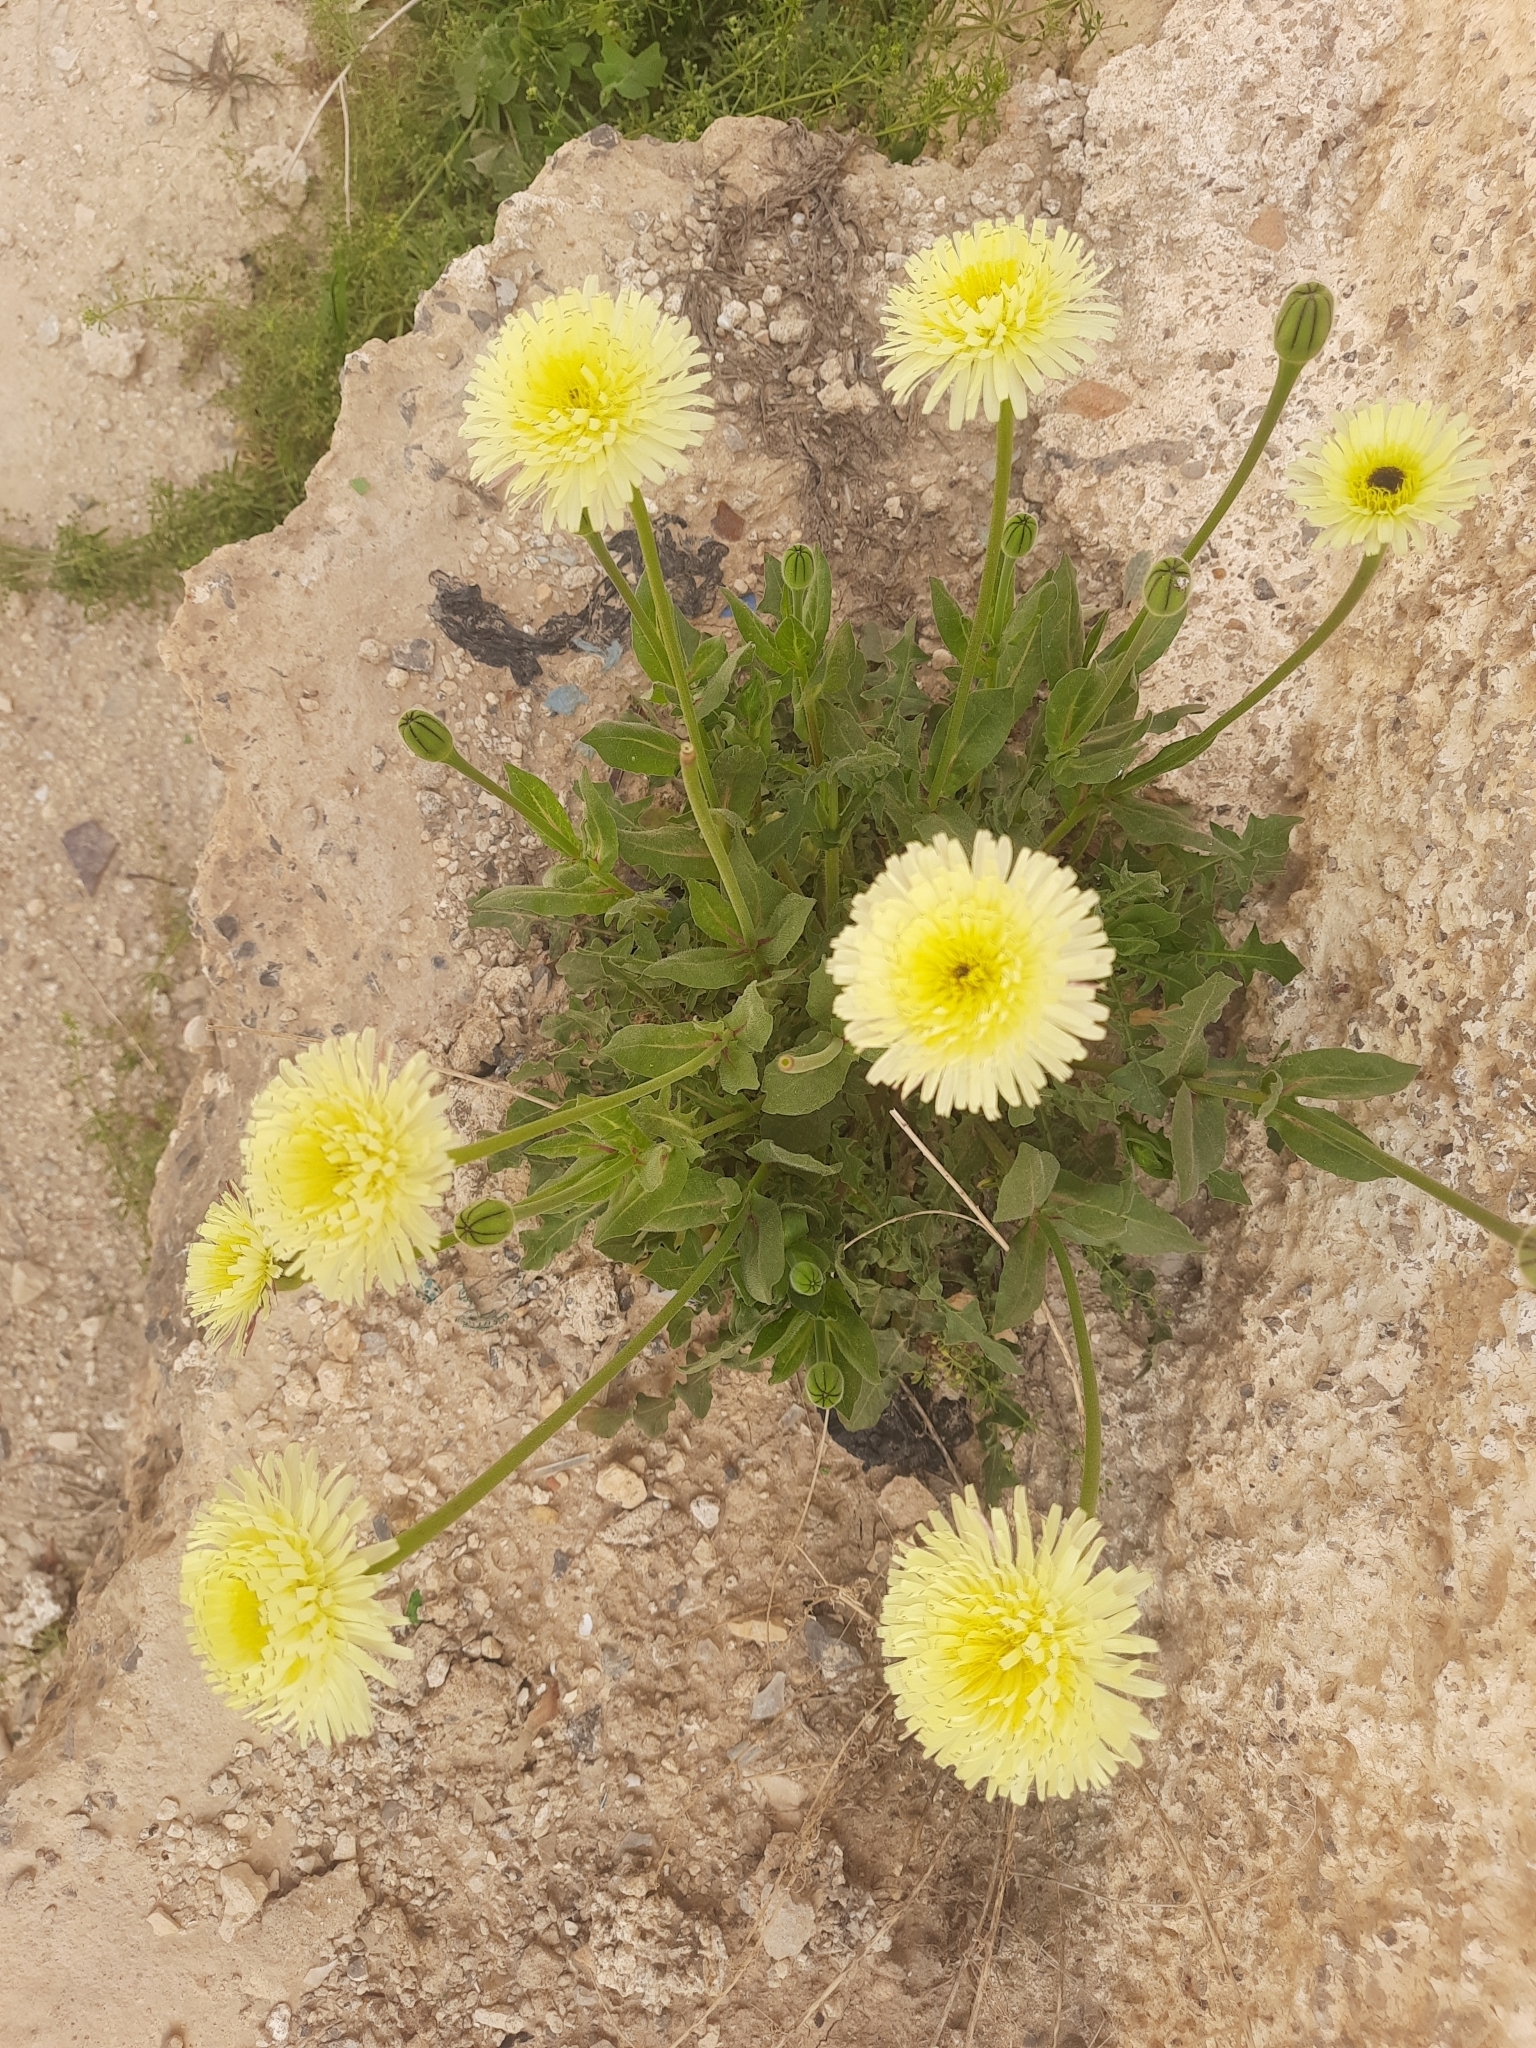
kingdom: Plantae
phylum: Tracheophyta
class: Magnoliopsida
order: Asterales
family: Asteraceae
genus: Urospermum
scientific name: Urospermum dalechampii
